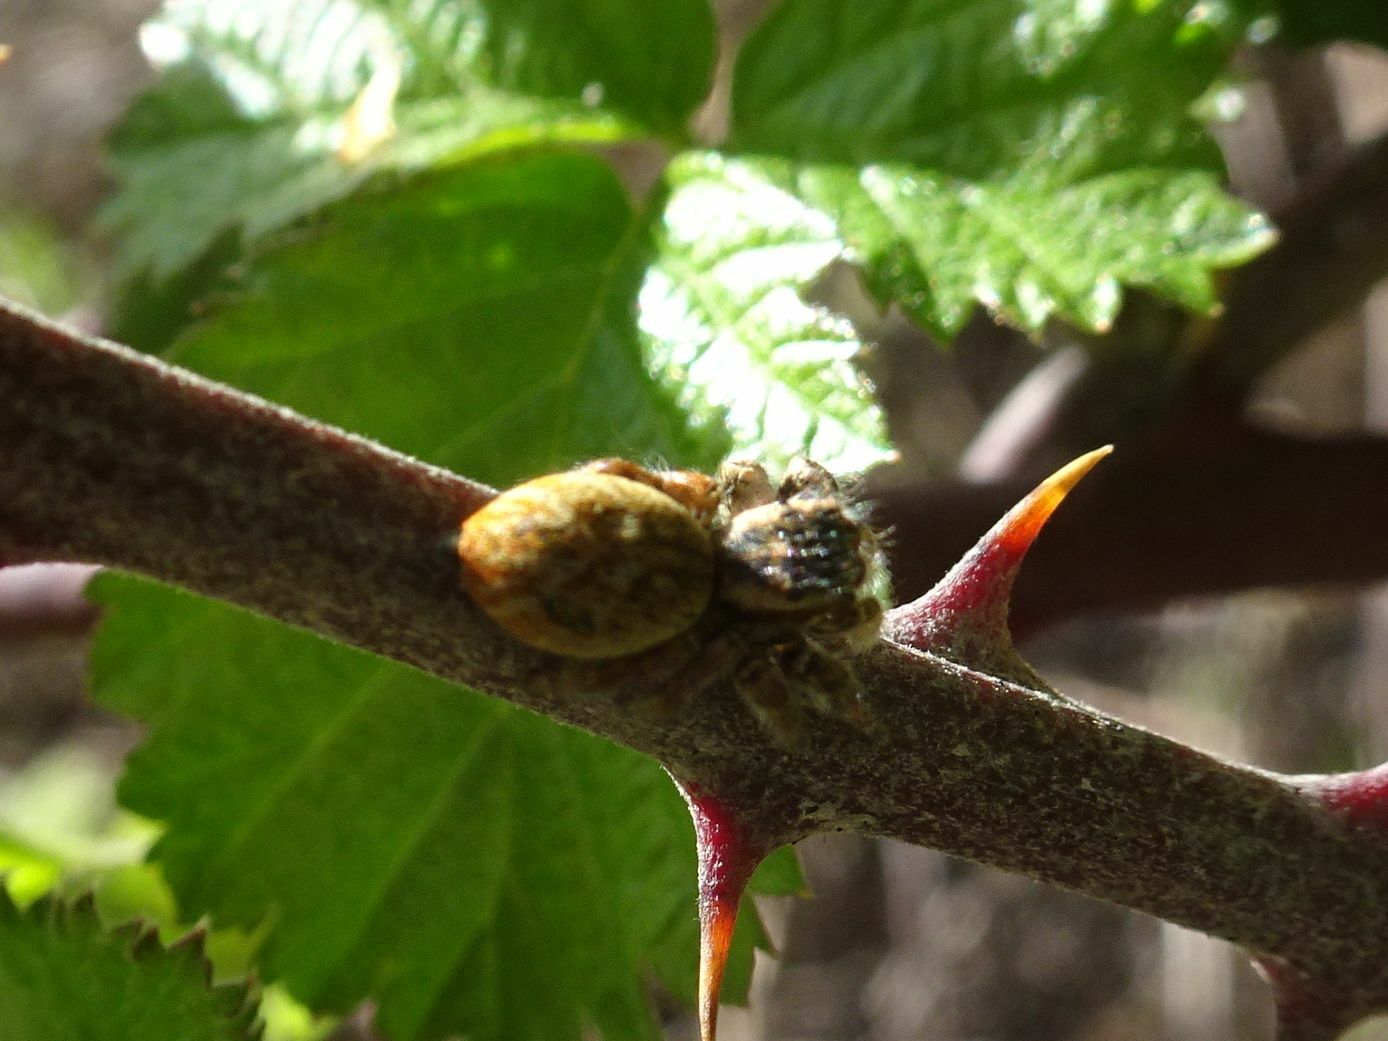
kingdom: Animalia
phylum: Arthropoda
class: Arachnida
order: Araneae
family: Salticidae
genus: Carrhotus
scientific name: Carrhotus xanthogramma
